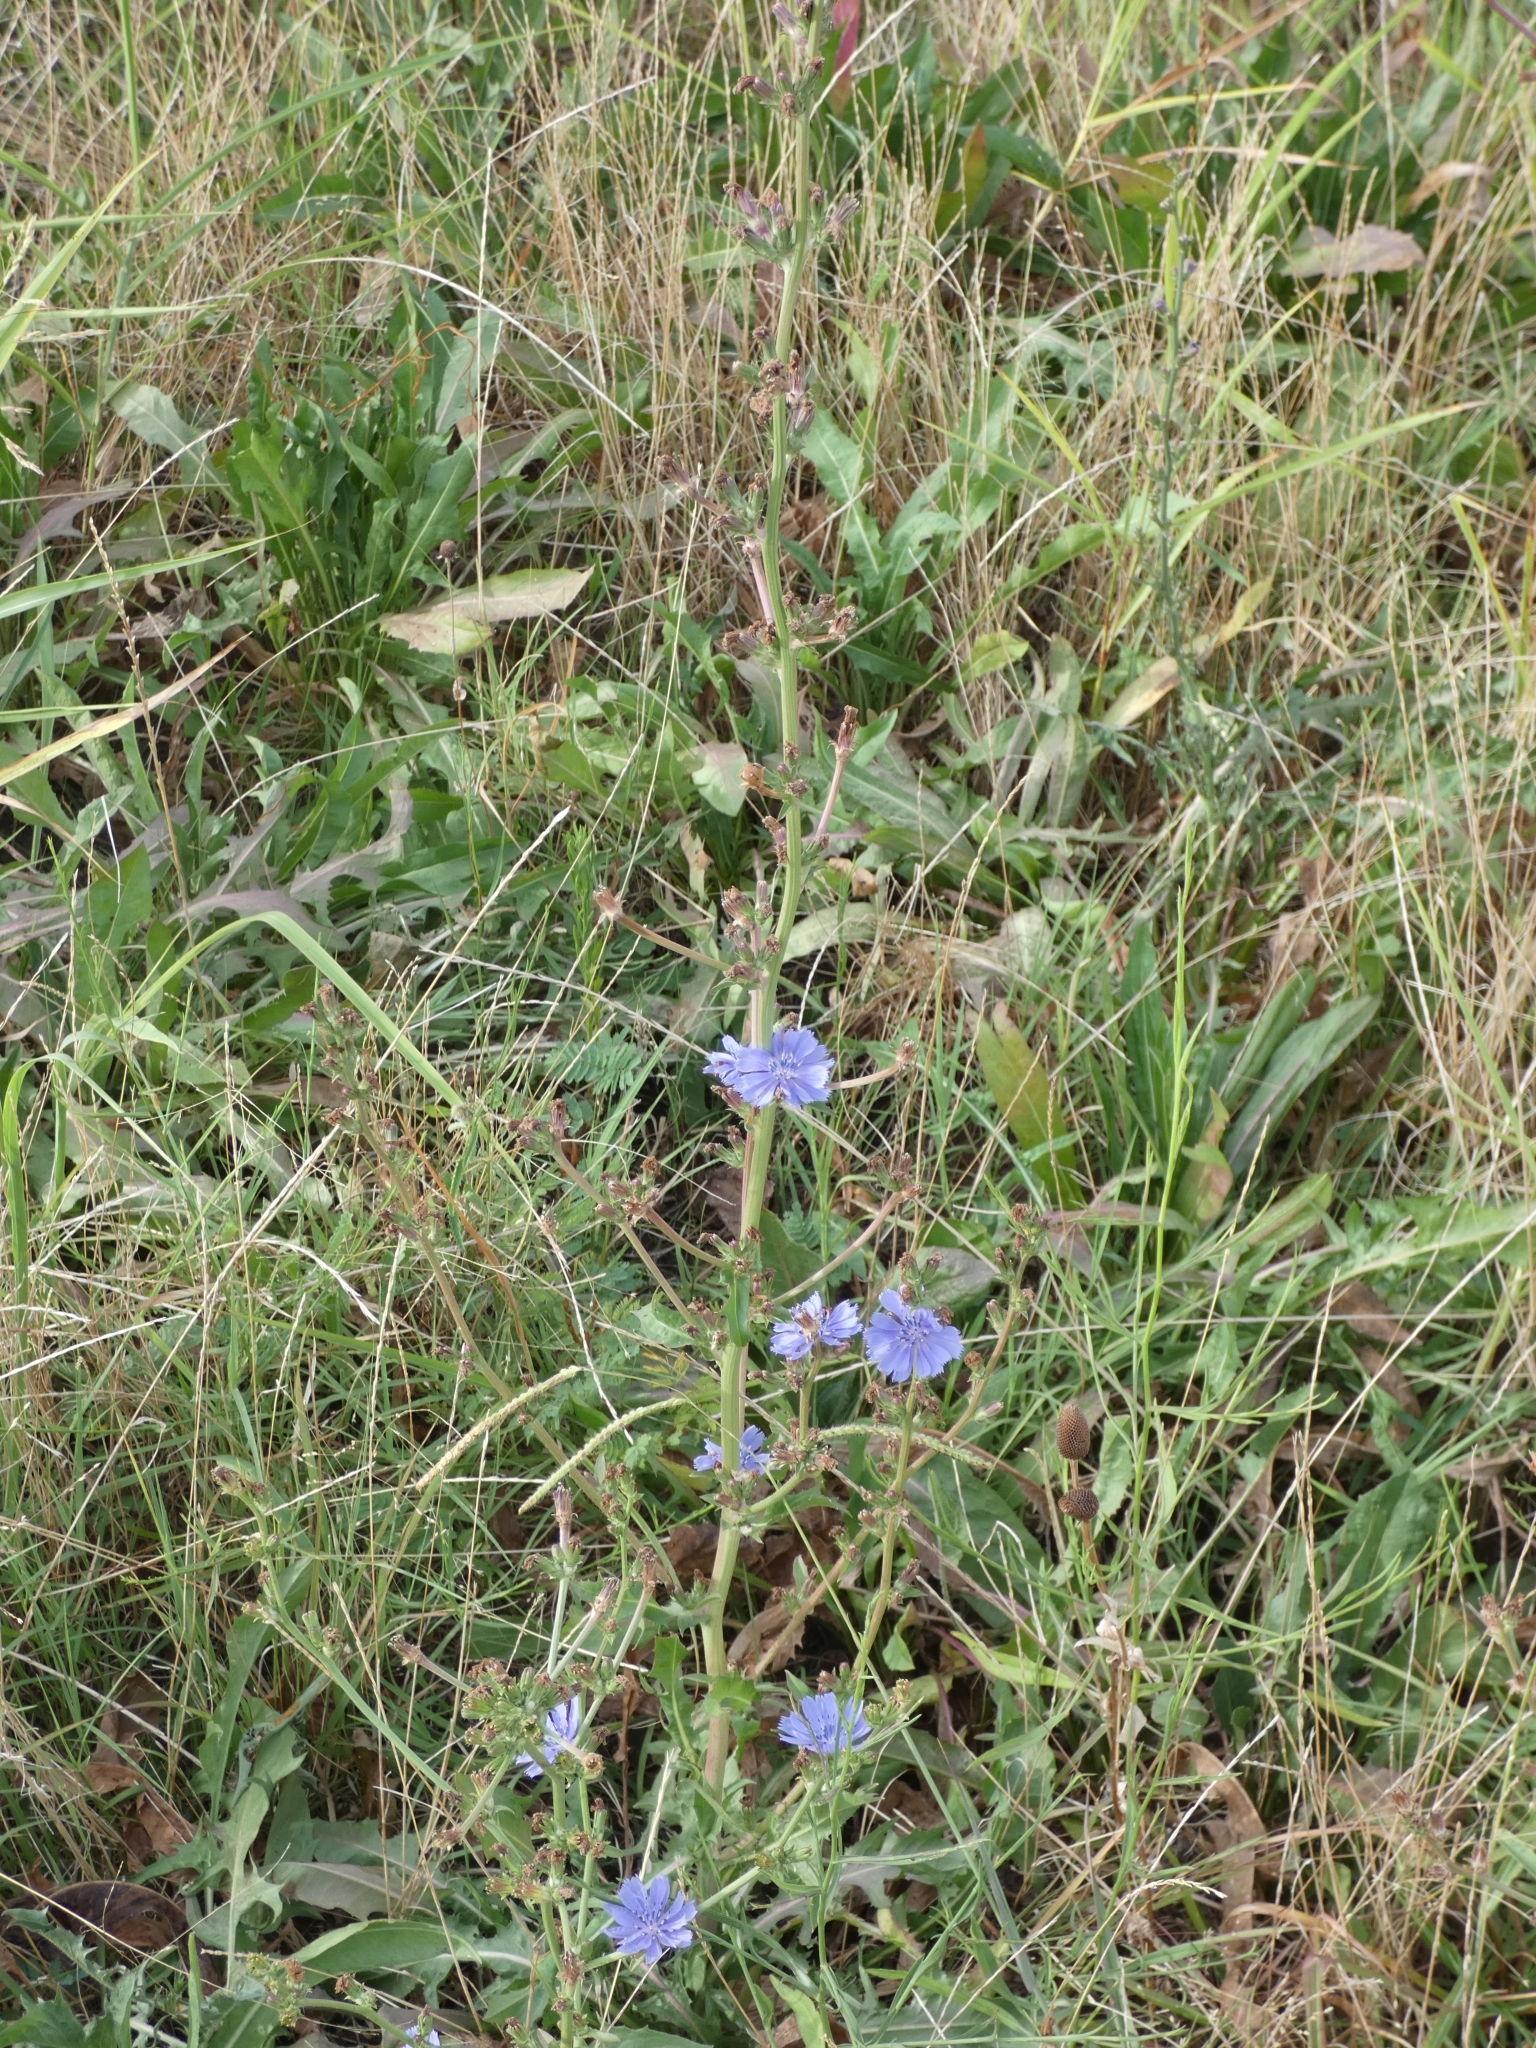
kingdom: Plantae
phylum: Tracheophyta
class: Magnoliopsida
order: Asterales
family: Asteraceae
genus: Cichorium
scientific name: Cichorium intybus
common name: Chicory
